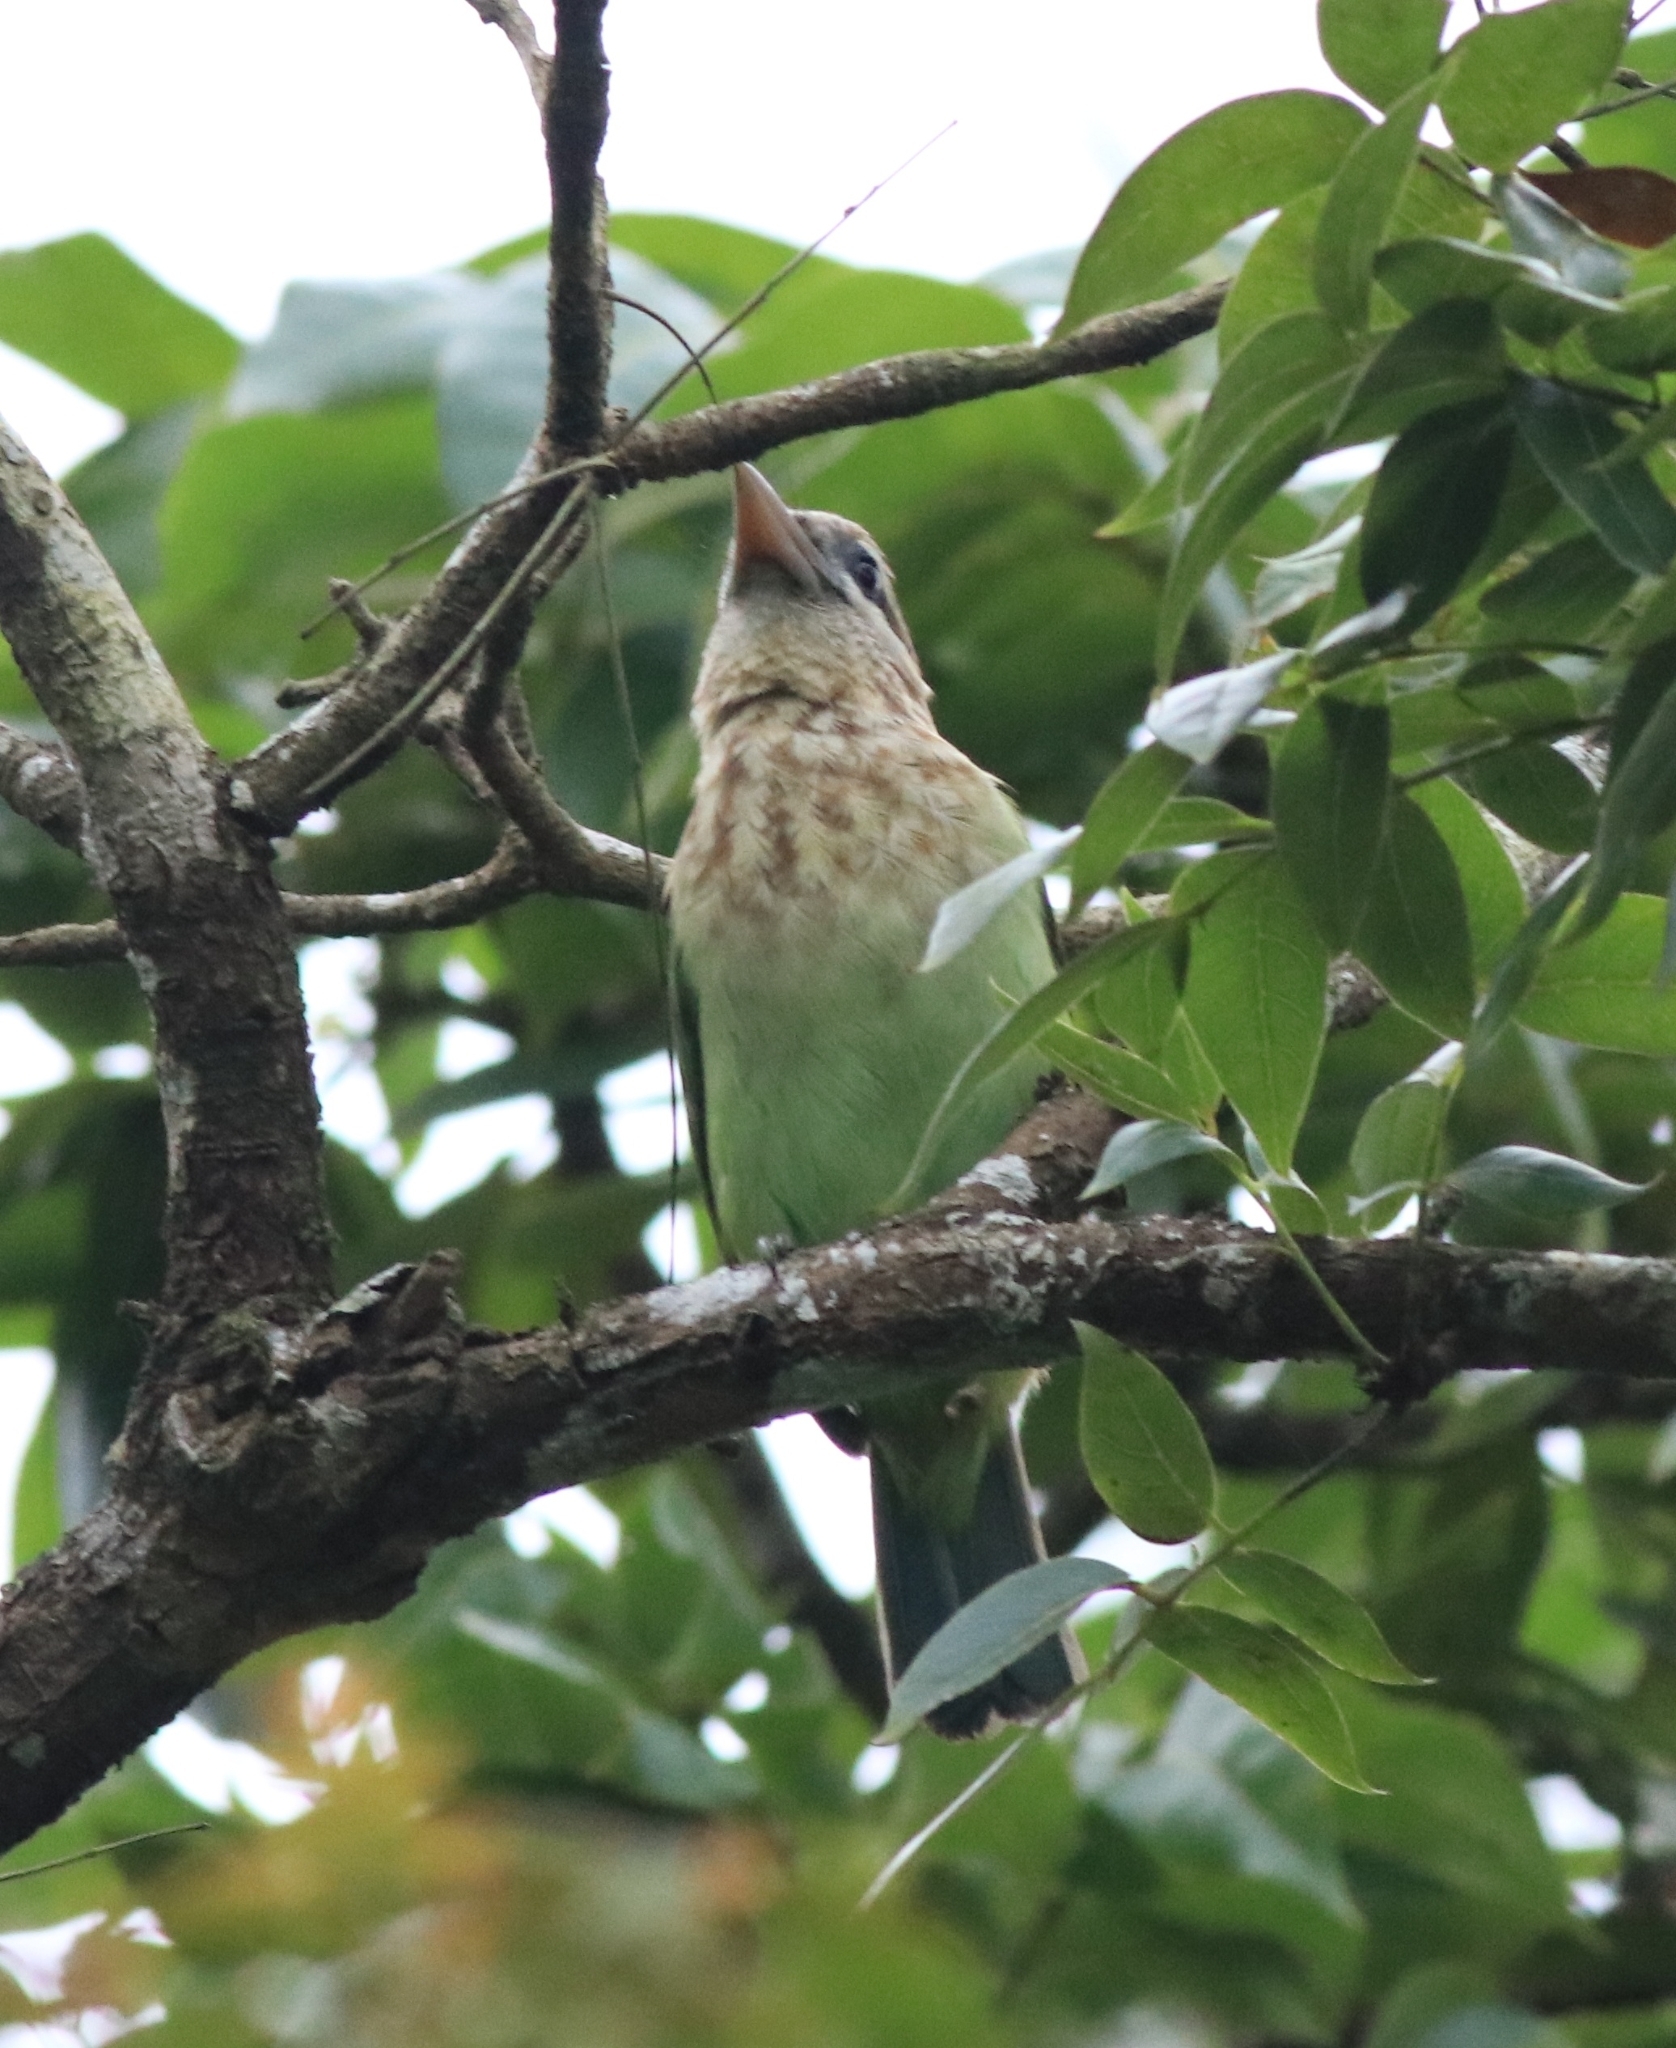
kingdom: Animalia
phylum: Chordata
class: Aves
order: Piciformes
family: Megalaimidae
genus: Psilopogon
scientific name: Psilopogon viridis
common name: White-cheeked barbet
